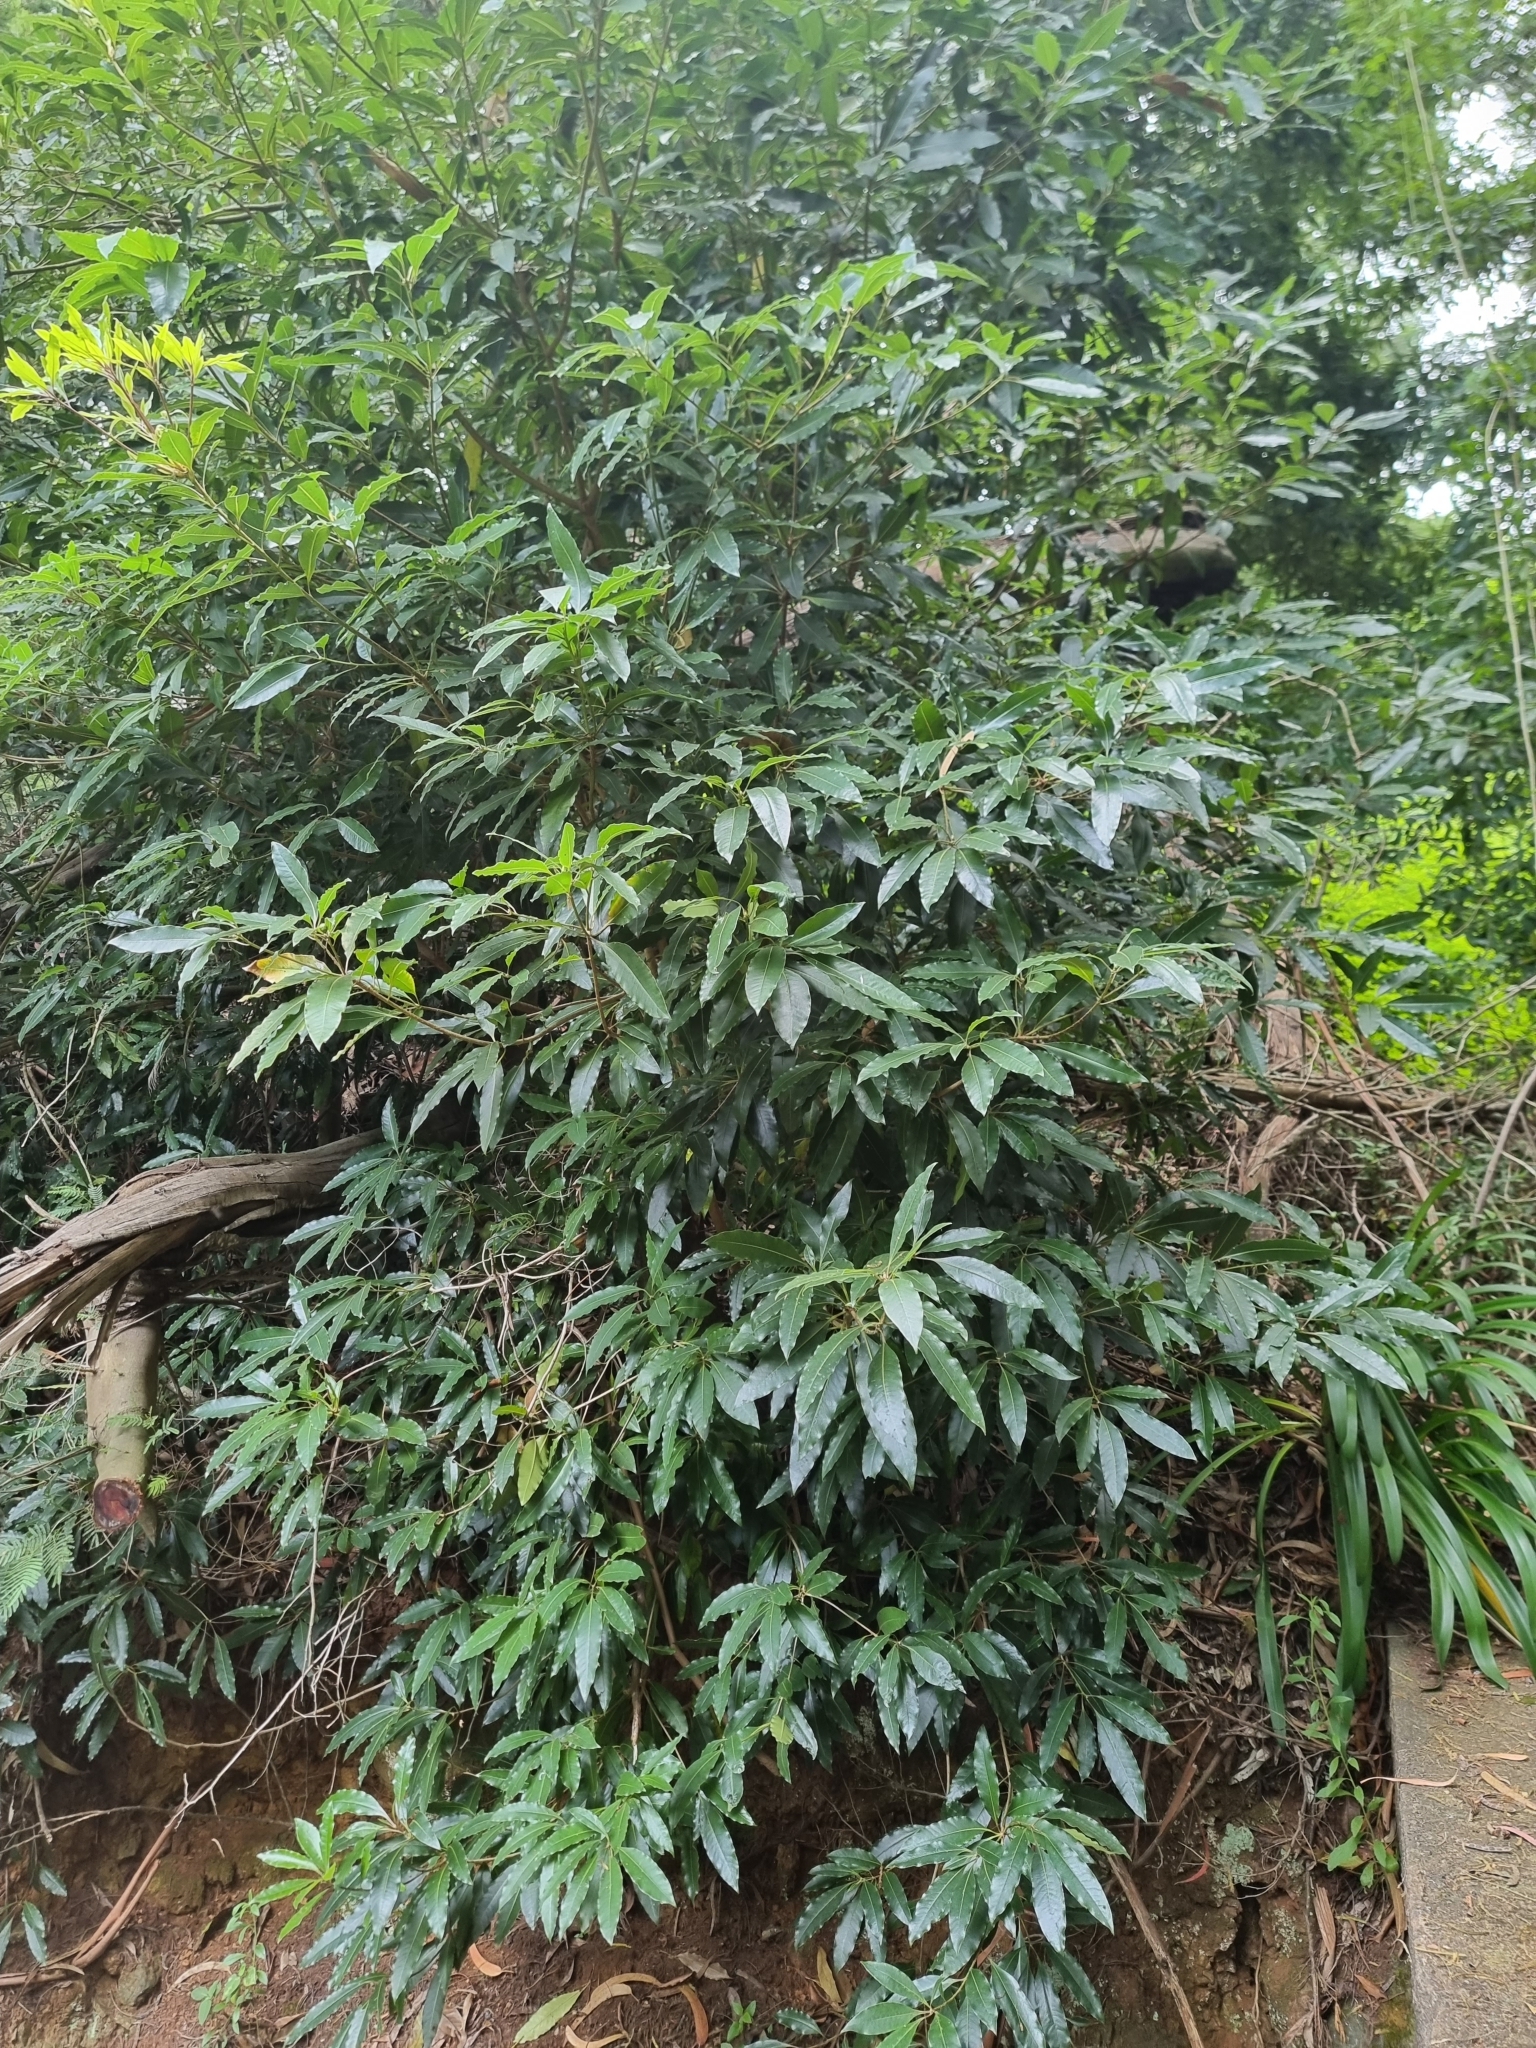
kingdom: Plantae
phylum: Tracheophyta
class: Magnoliopsida
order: Apiales
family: Pittosporaceae
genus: Pittosporum
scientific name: Pittosporum undulatum
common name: Australian cheesewood
